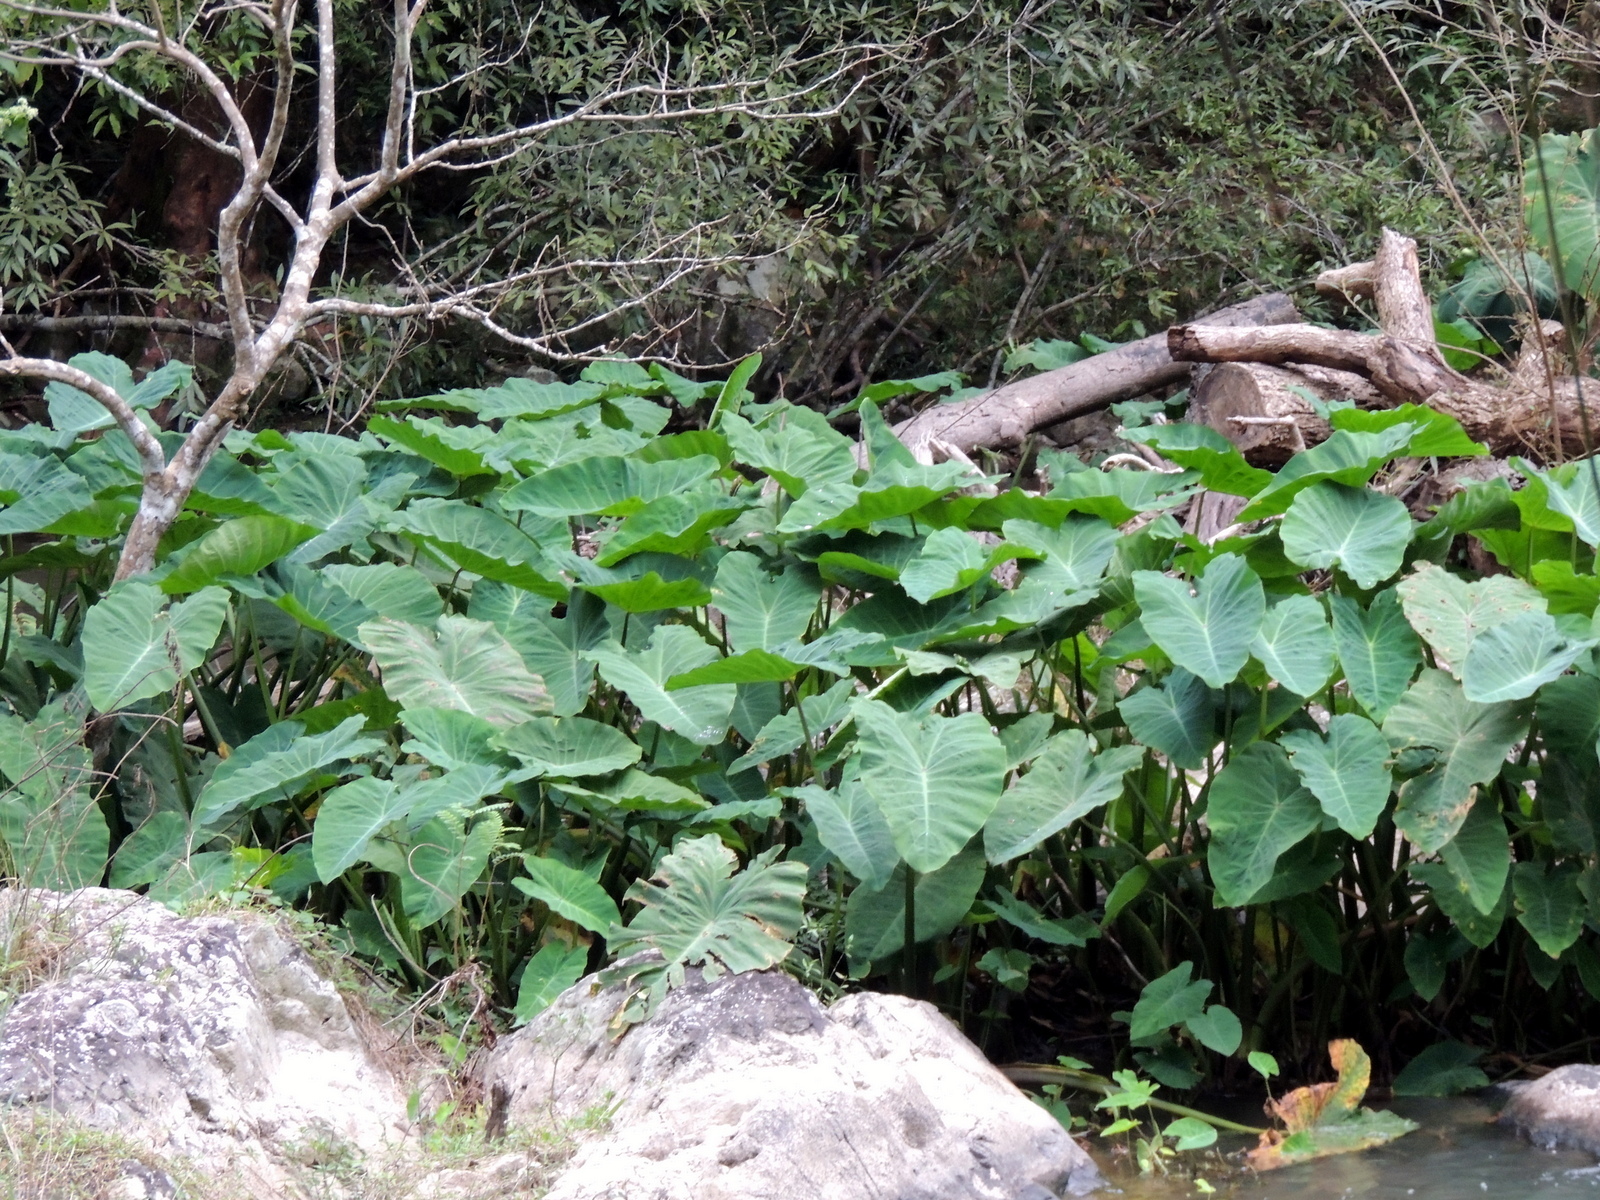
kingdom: Plantae
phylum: Tracheophyta
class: Liliopsida
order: Alismatales
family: Araceae
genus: Colocasia
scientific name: Colocasia esculenta
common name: Taro
